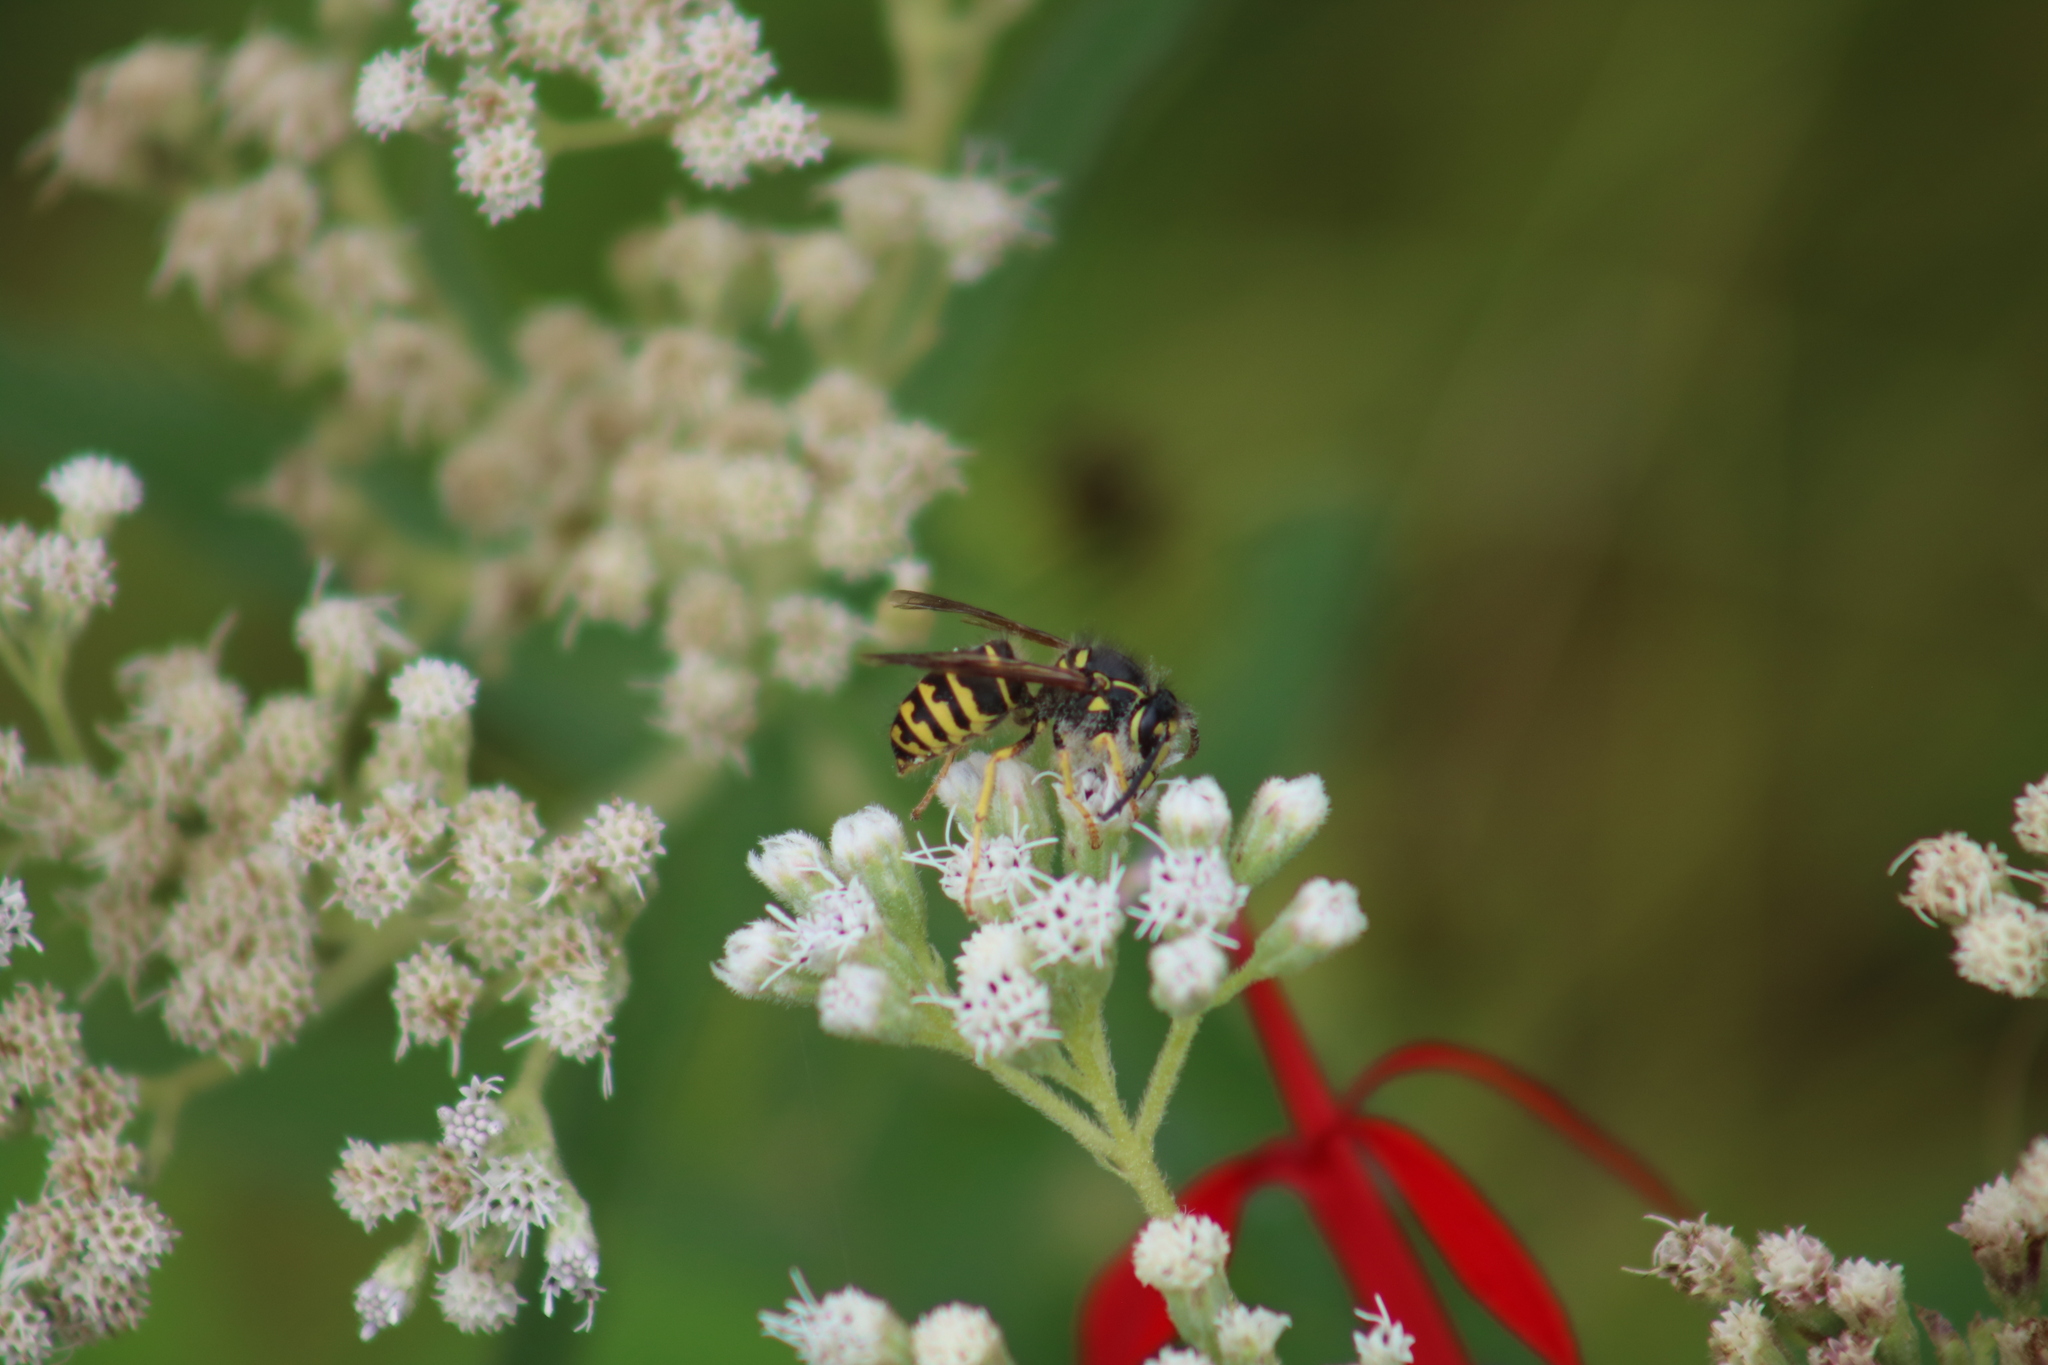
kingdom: Animalia
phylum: Arthropoda
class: Insecta
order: Hymenoptera
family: Vespidae
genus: Dolichovespula
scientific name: Dolichovespula arenaria
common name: Aerial yellowjacket
